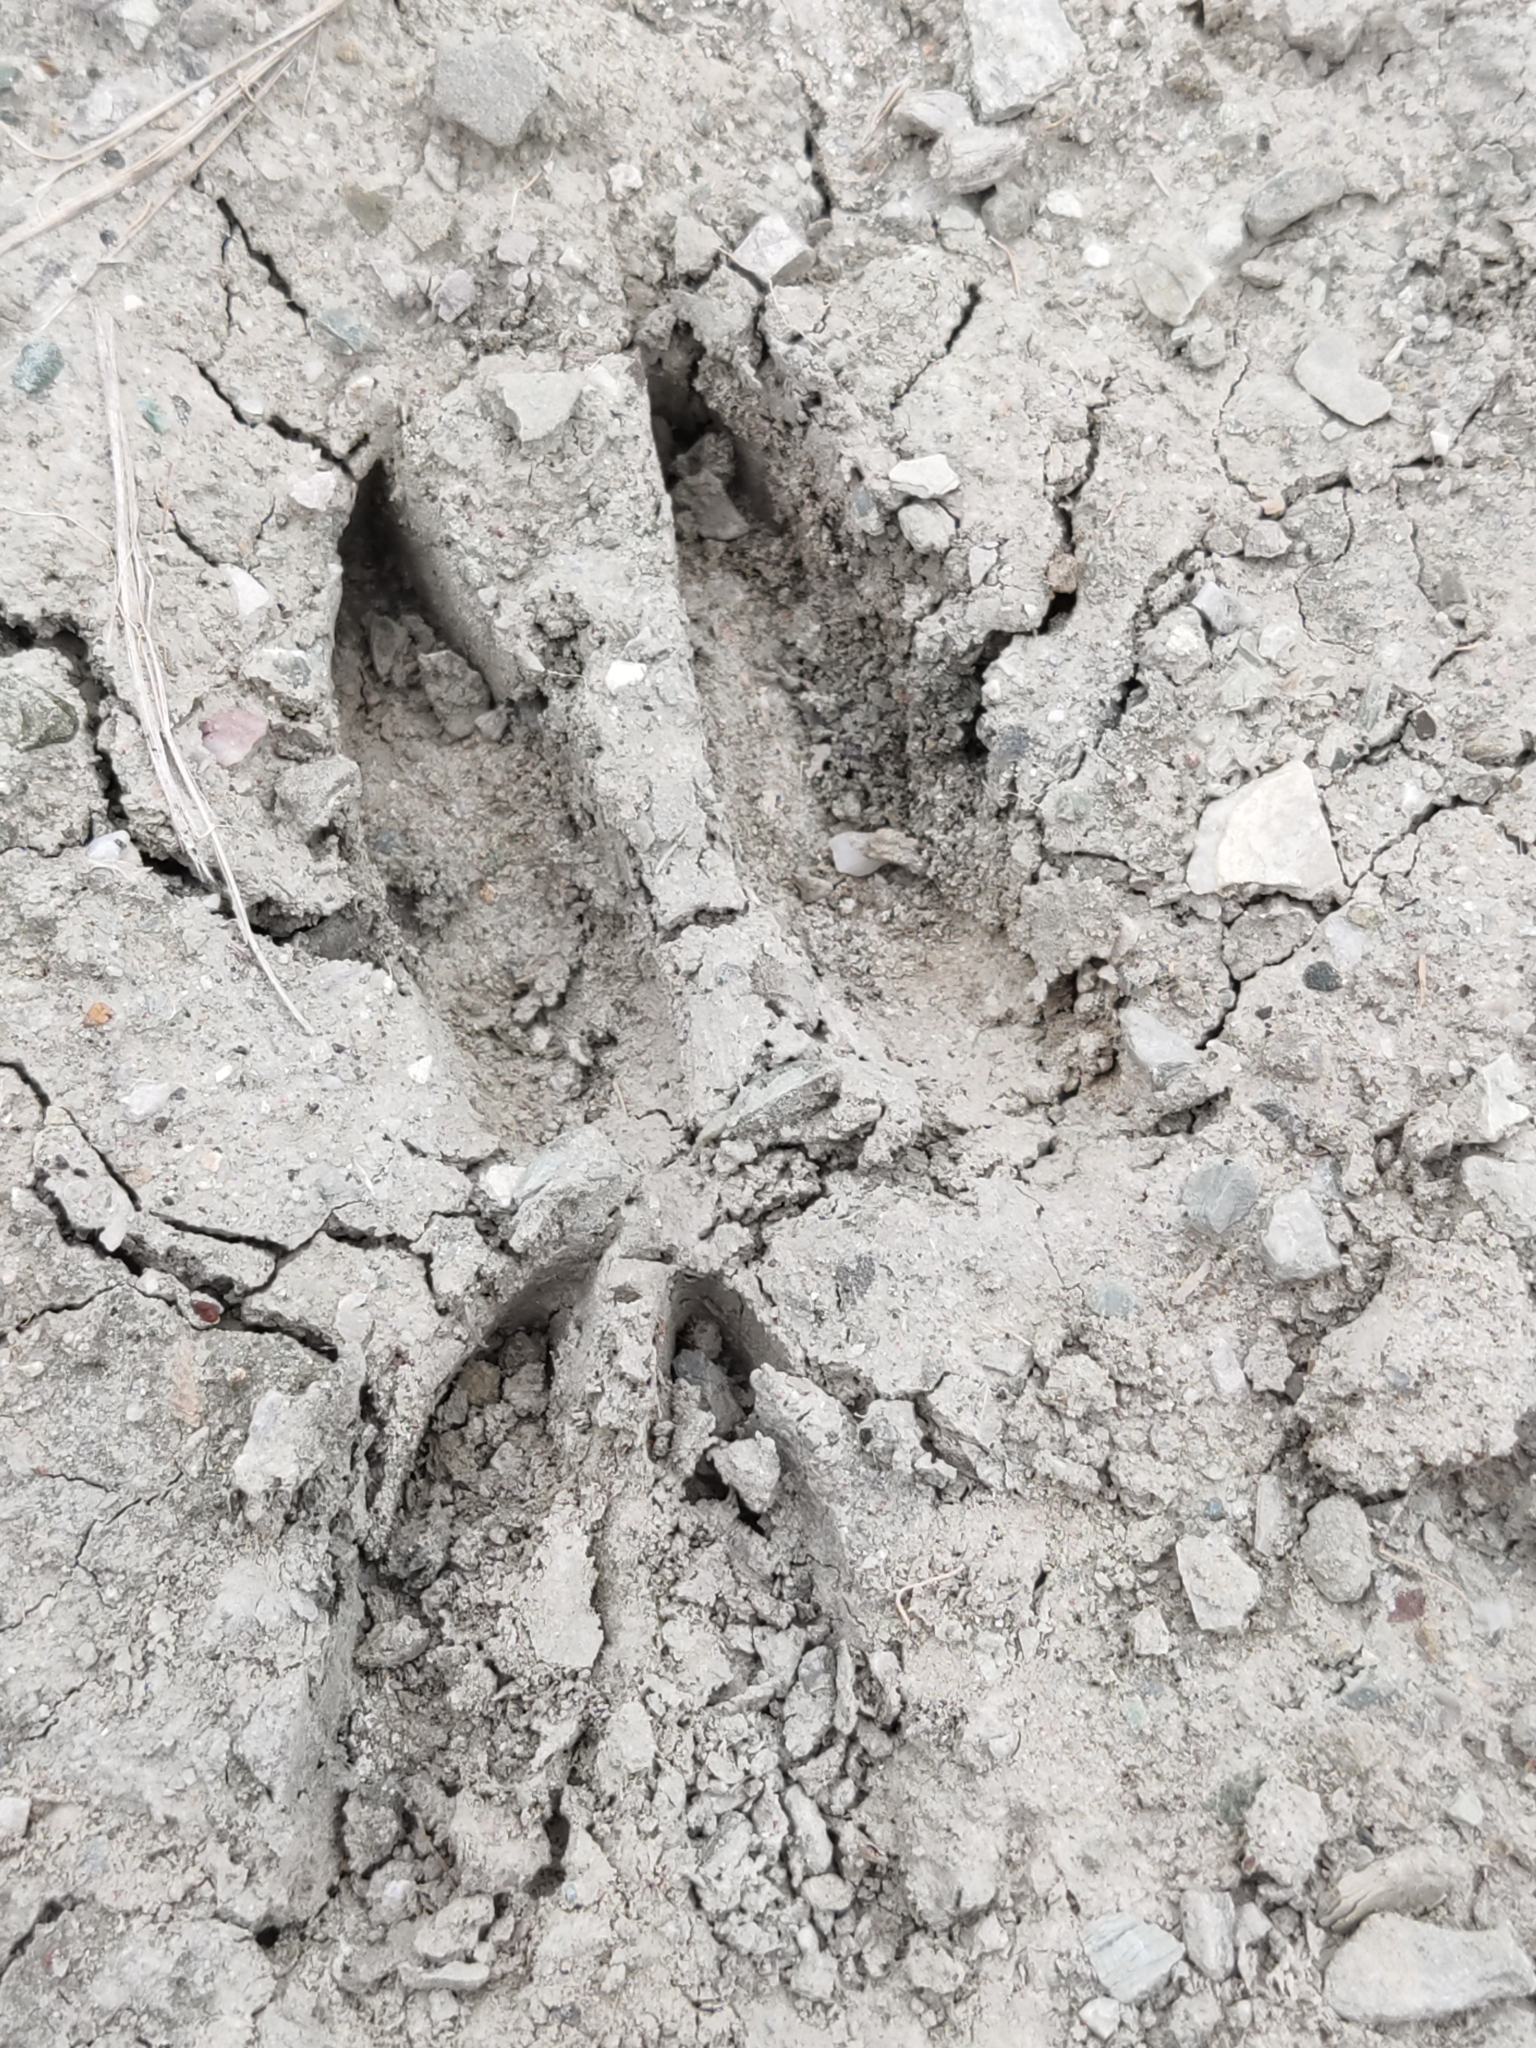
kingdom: Animalia
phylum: Chordata
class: Mammalia
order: Artiodactyla
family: Cervidae
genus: Capreolus
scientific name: Capreolus capreolus
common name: Western roe deer
